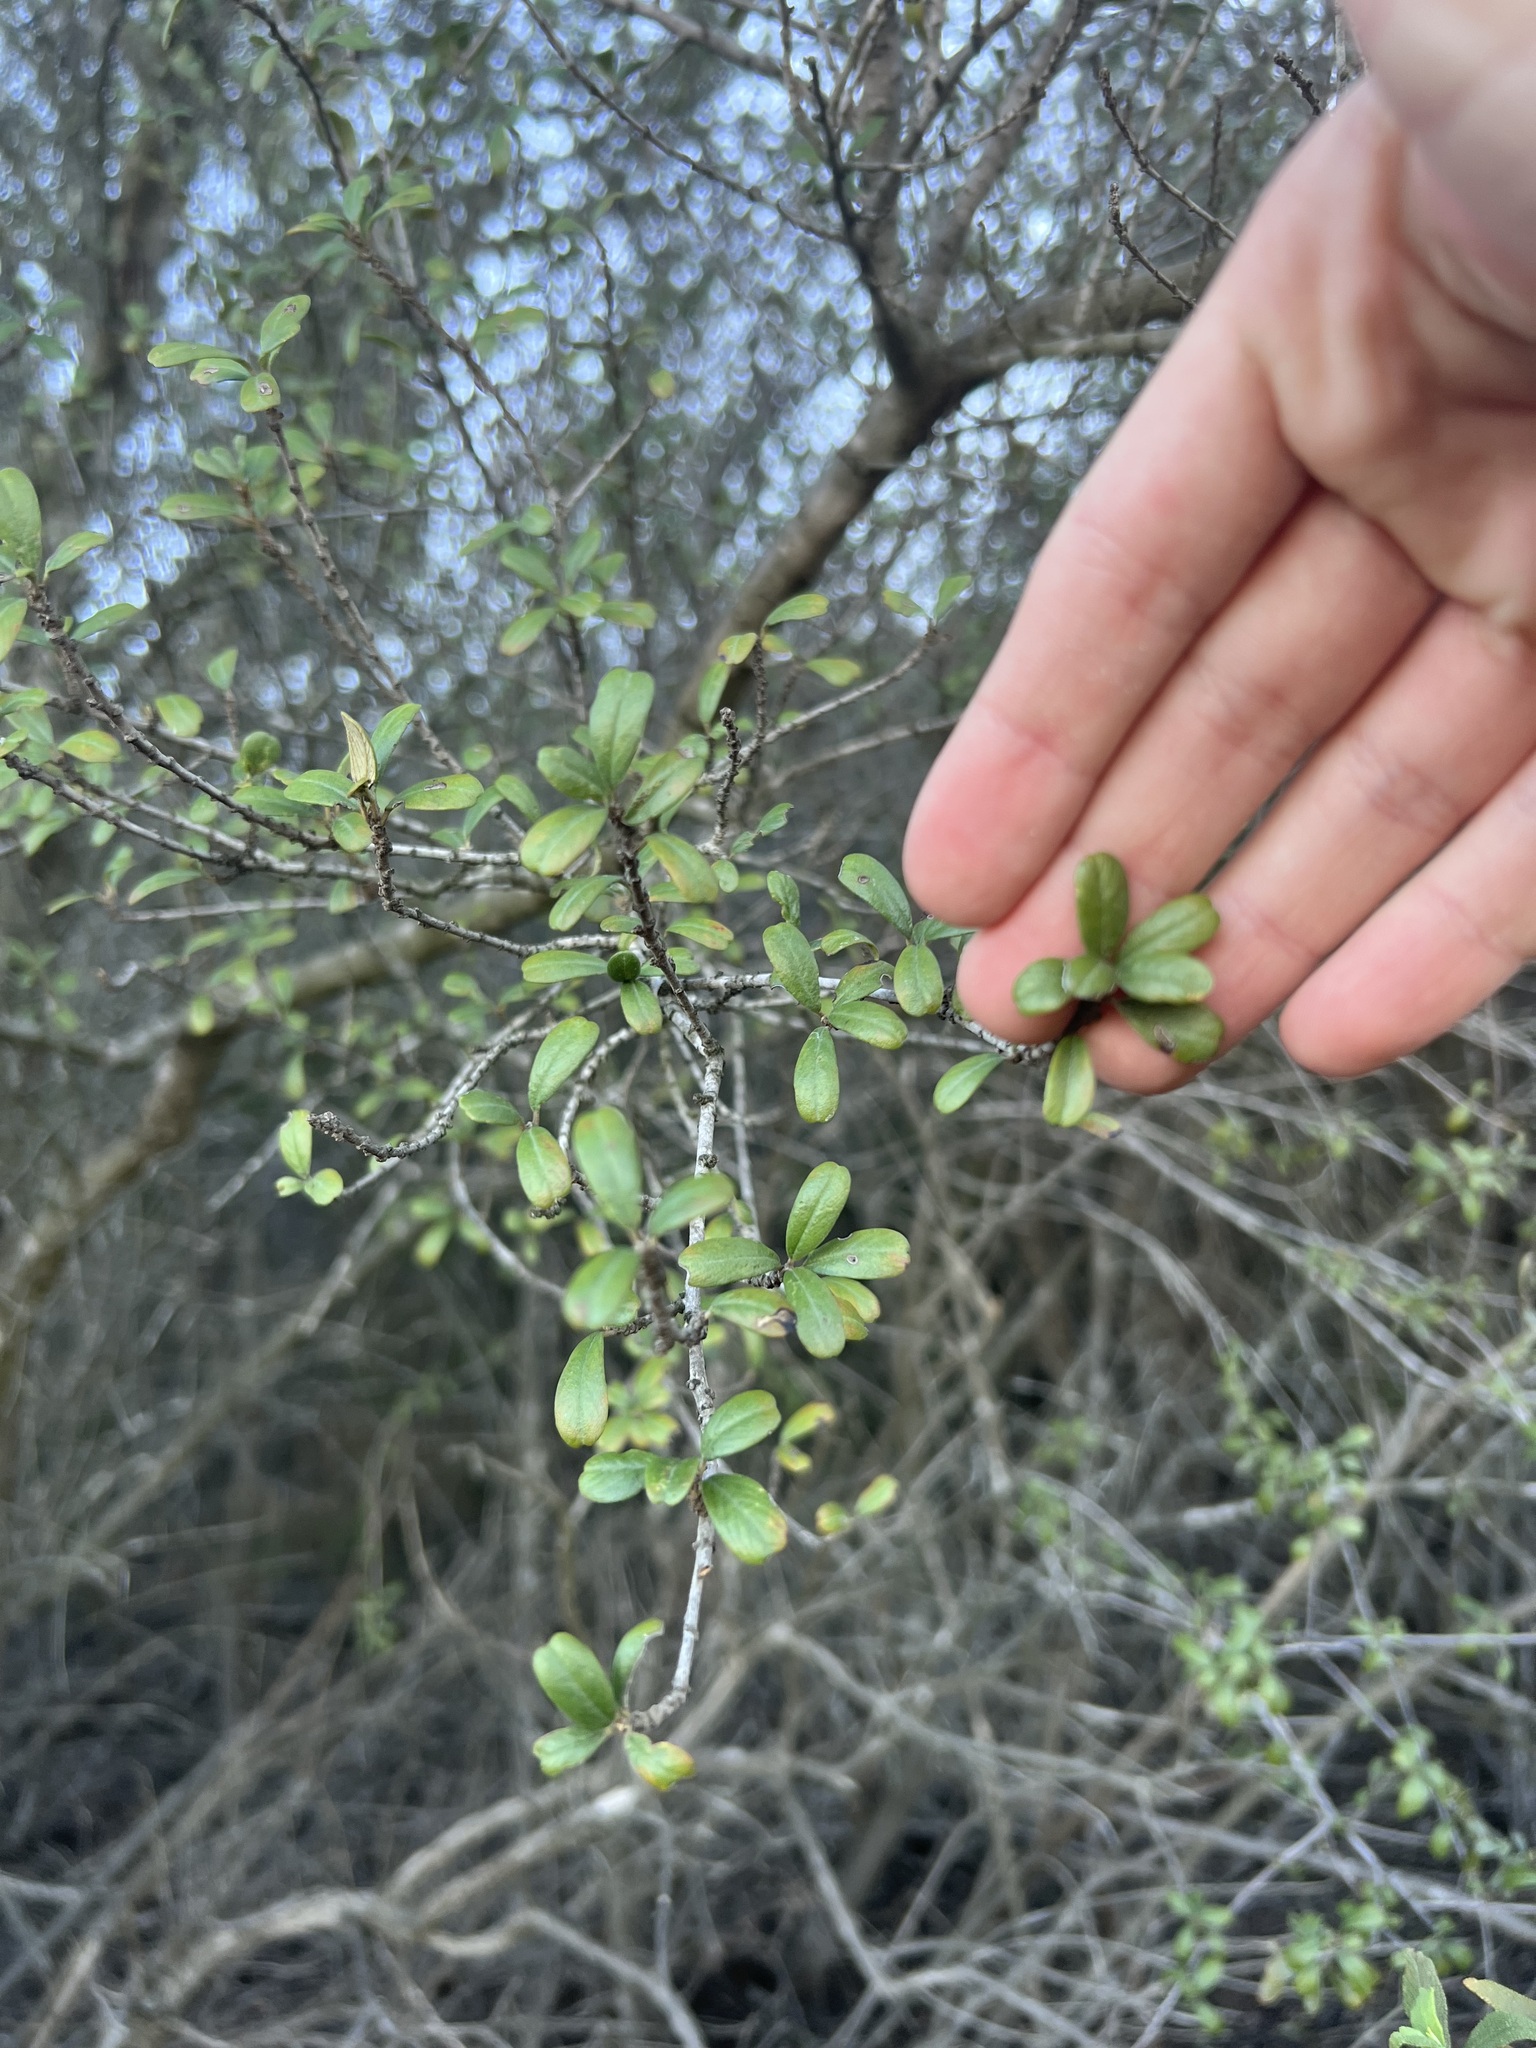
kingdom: Plantae
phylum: Tracheophyta
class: Magnoliopsida
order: Rosales
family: Rhamnaceae
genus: Ceanothus
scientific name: Ceanothus megacarpus
